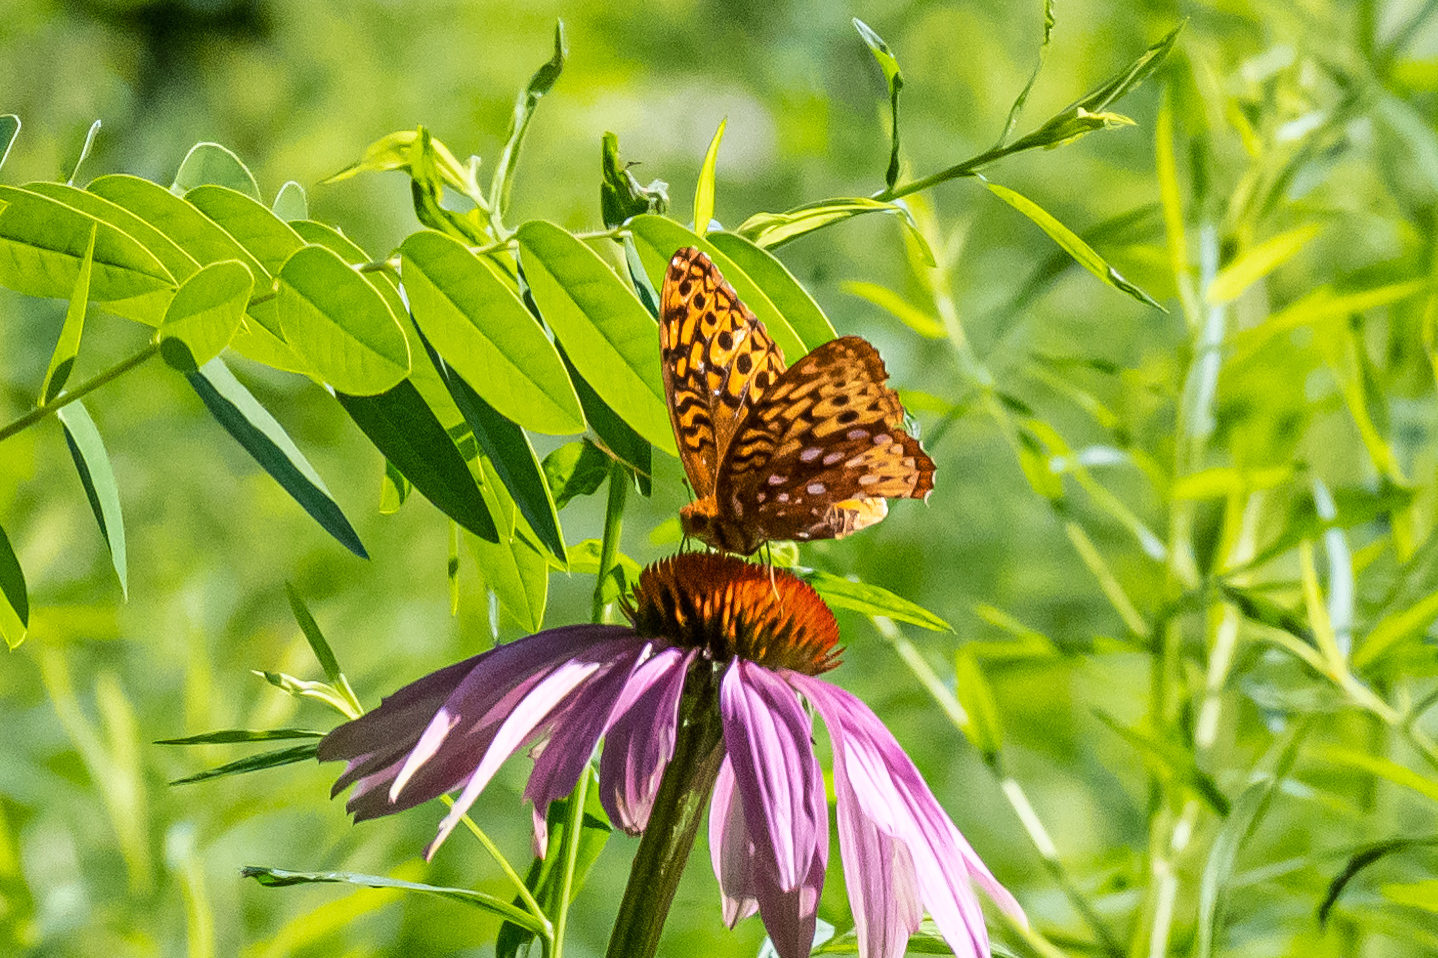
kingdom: Animalia
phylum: Arthropoda
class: Insecta
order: Lepidoptera
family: Nymphalidae
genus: Speyeria
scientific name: Speyeria cybele
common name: Great spangled fritillary
